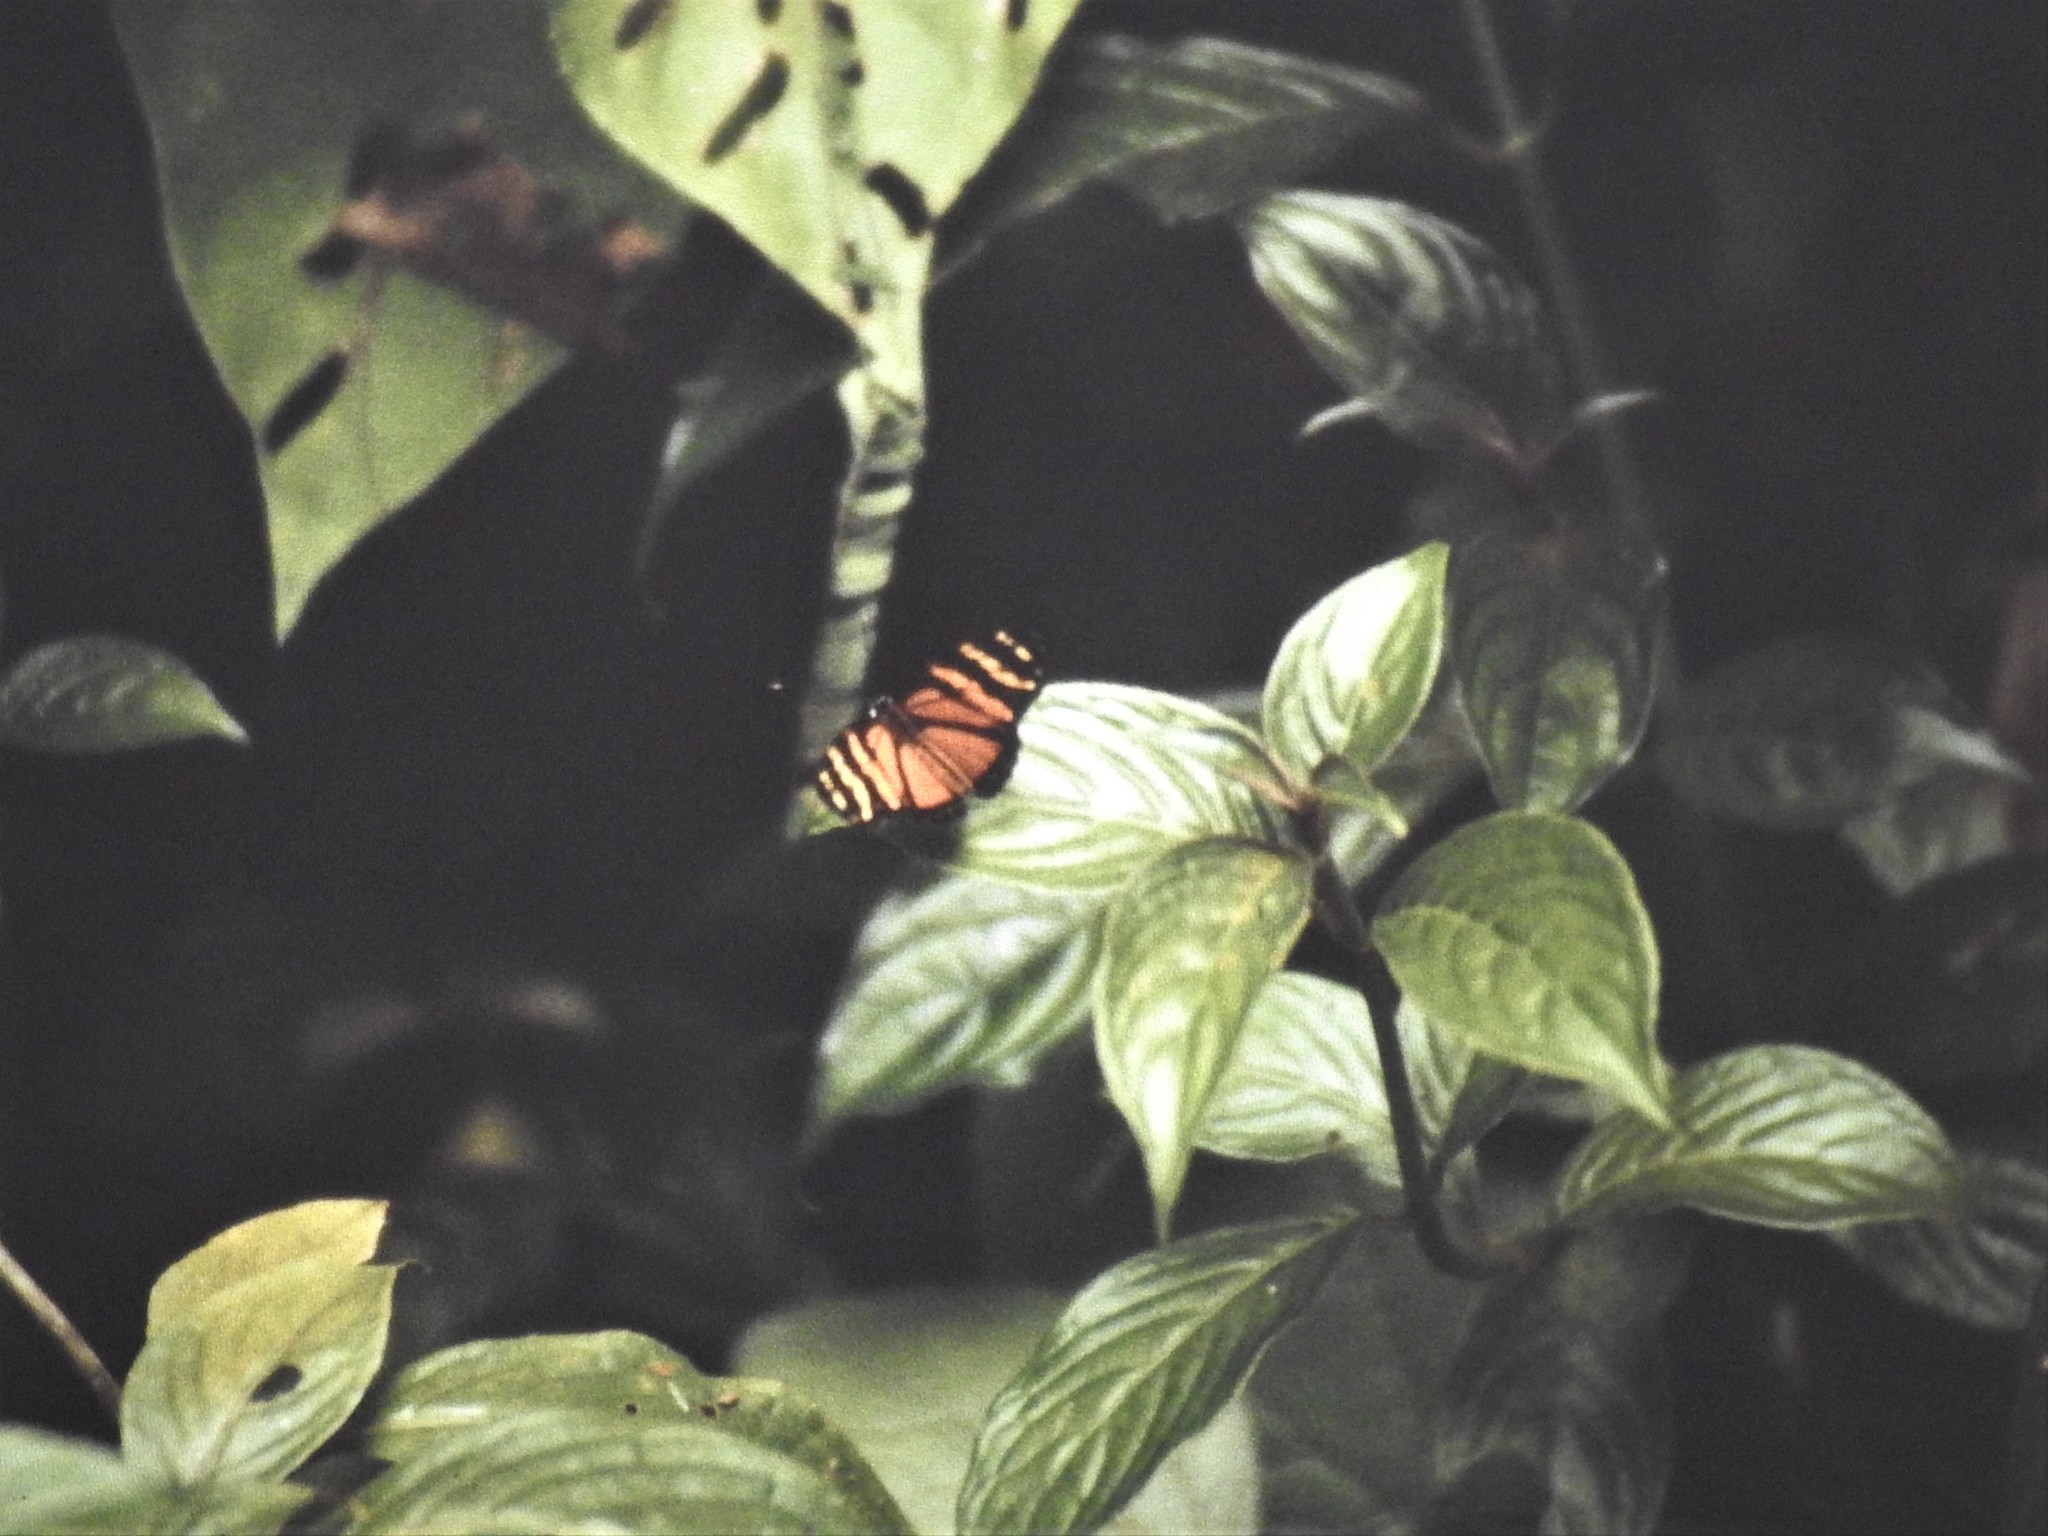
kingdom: Animalia
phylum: Arthropoda
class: Insecta
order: Lepidoptera
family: Nymphalidae
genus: Eresia
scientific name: Eresia ithomioides
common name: Variable crescent
